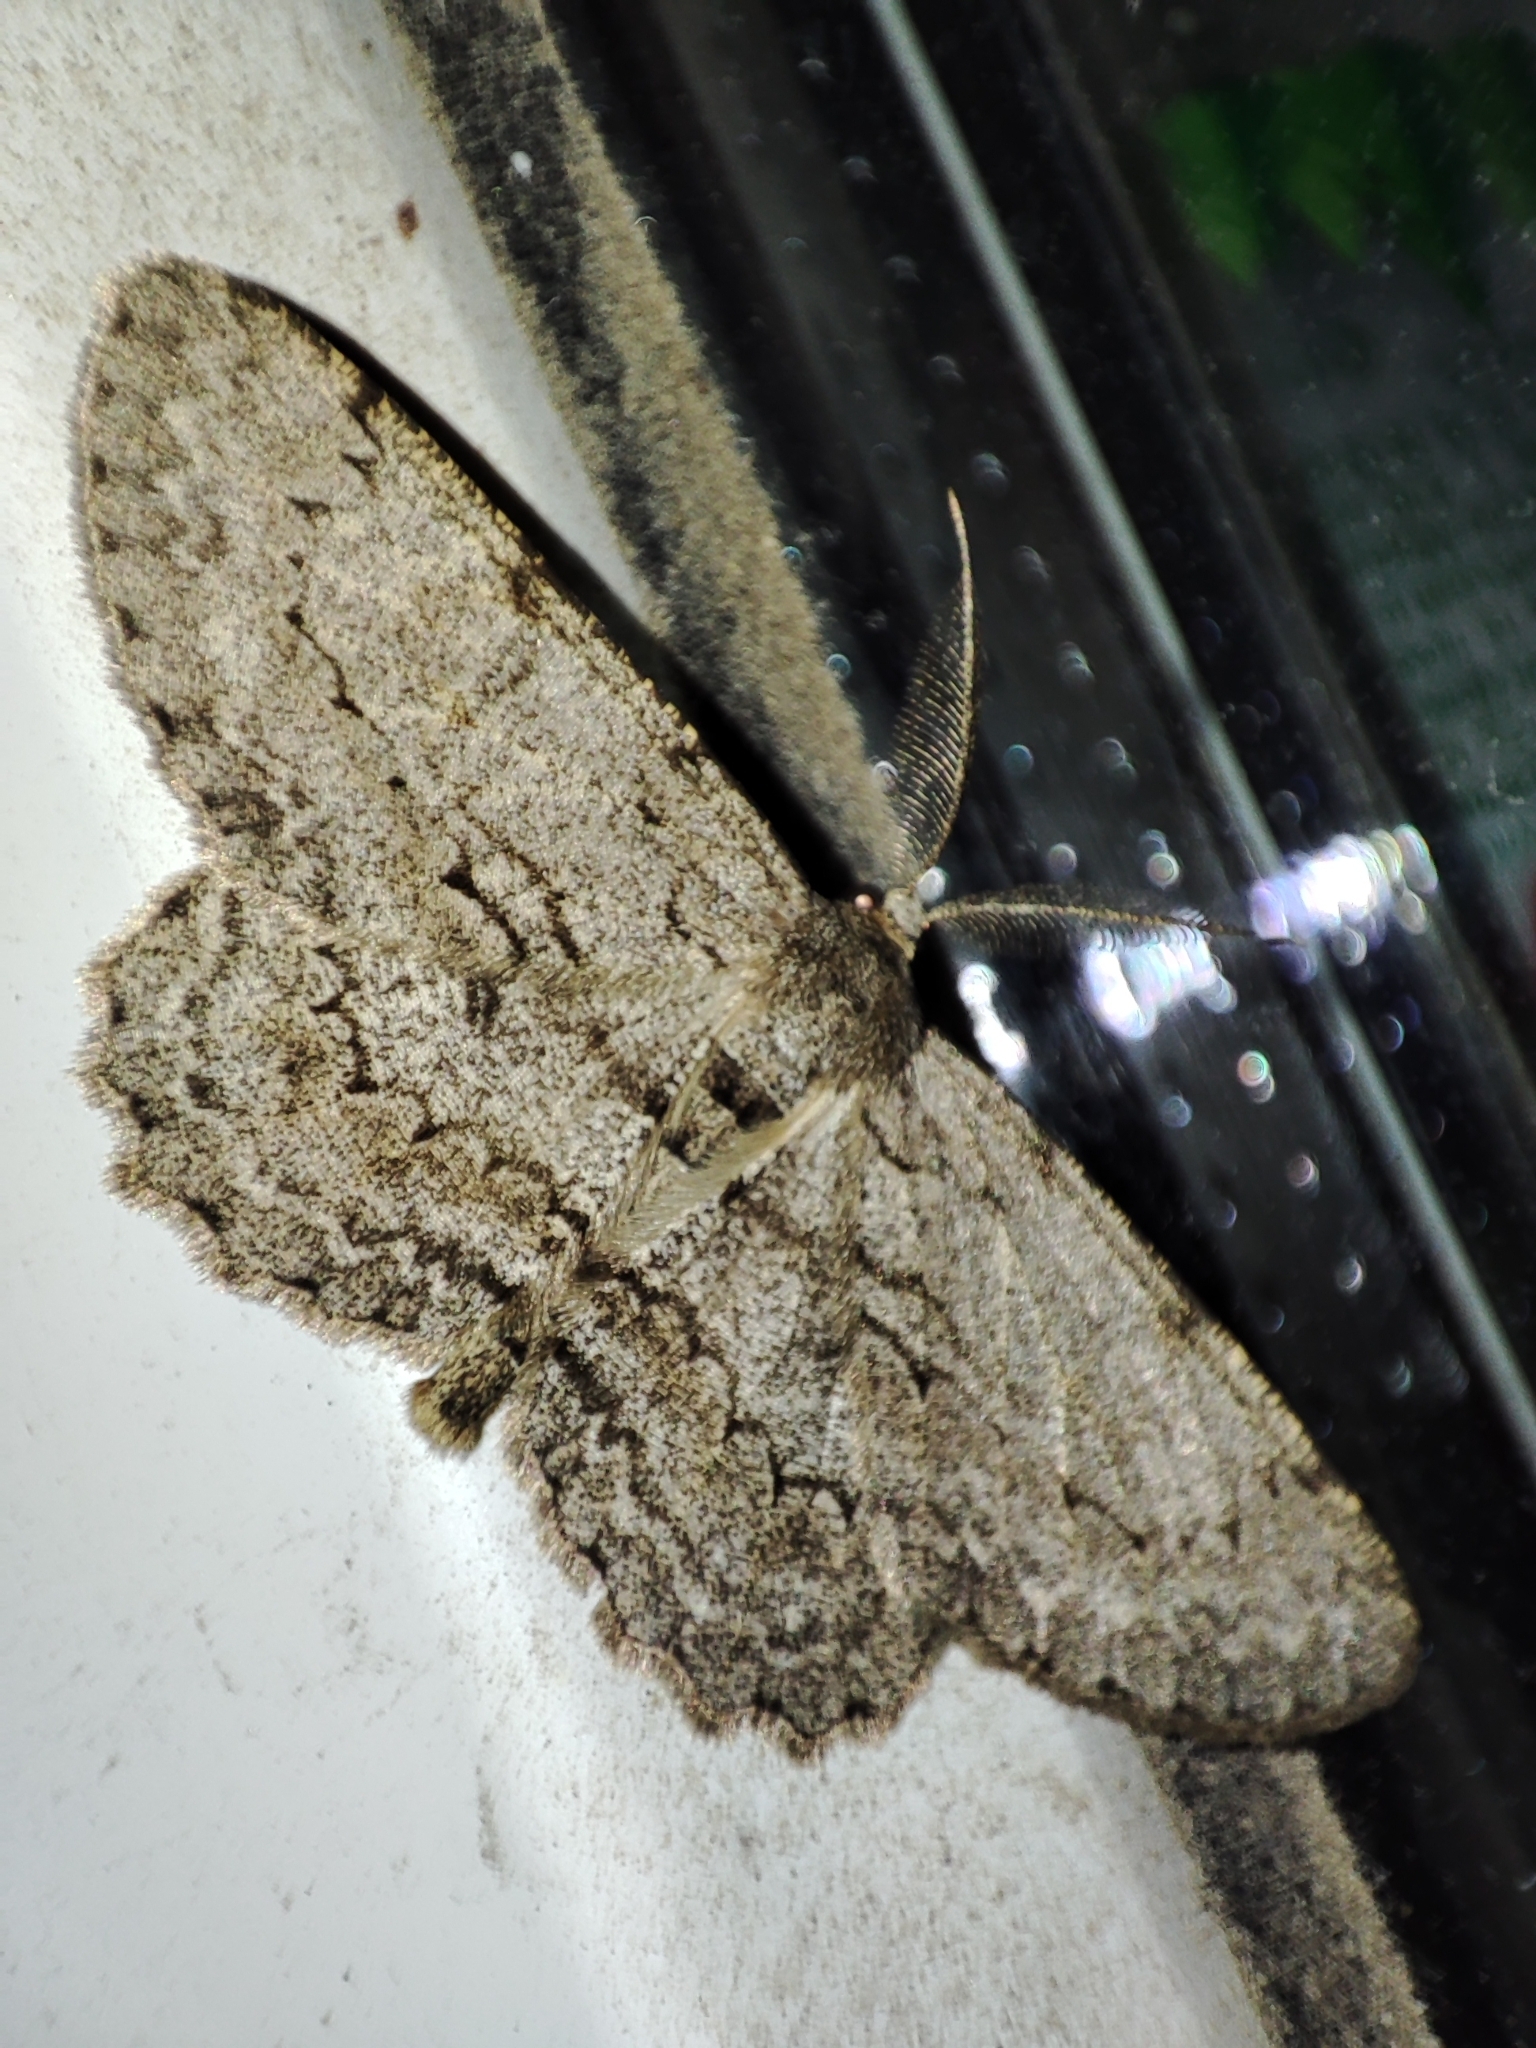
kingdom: Animalia
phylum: Arthropoda
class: Insecta
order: Lepidoptera
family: Geometridae
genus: Hypomecis
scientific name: Hypomecis punctinalis
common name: Pale oak beauty
